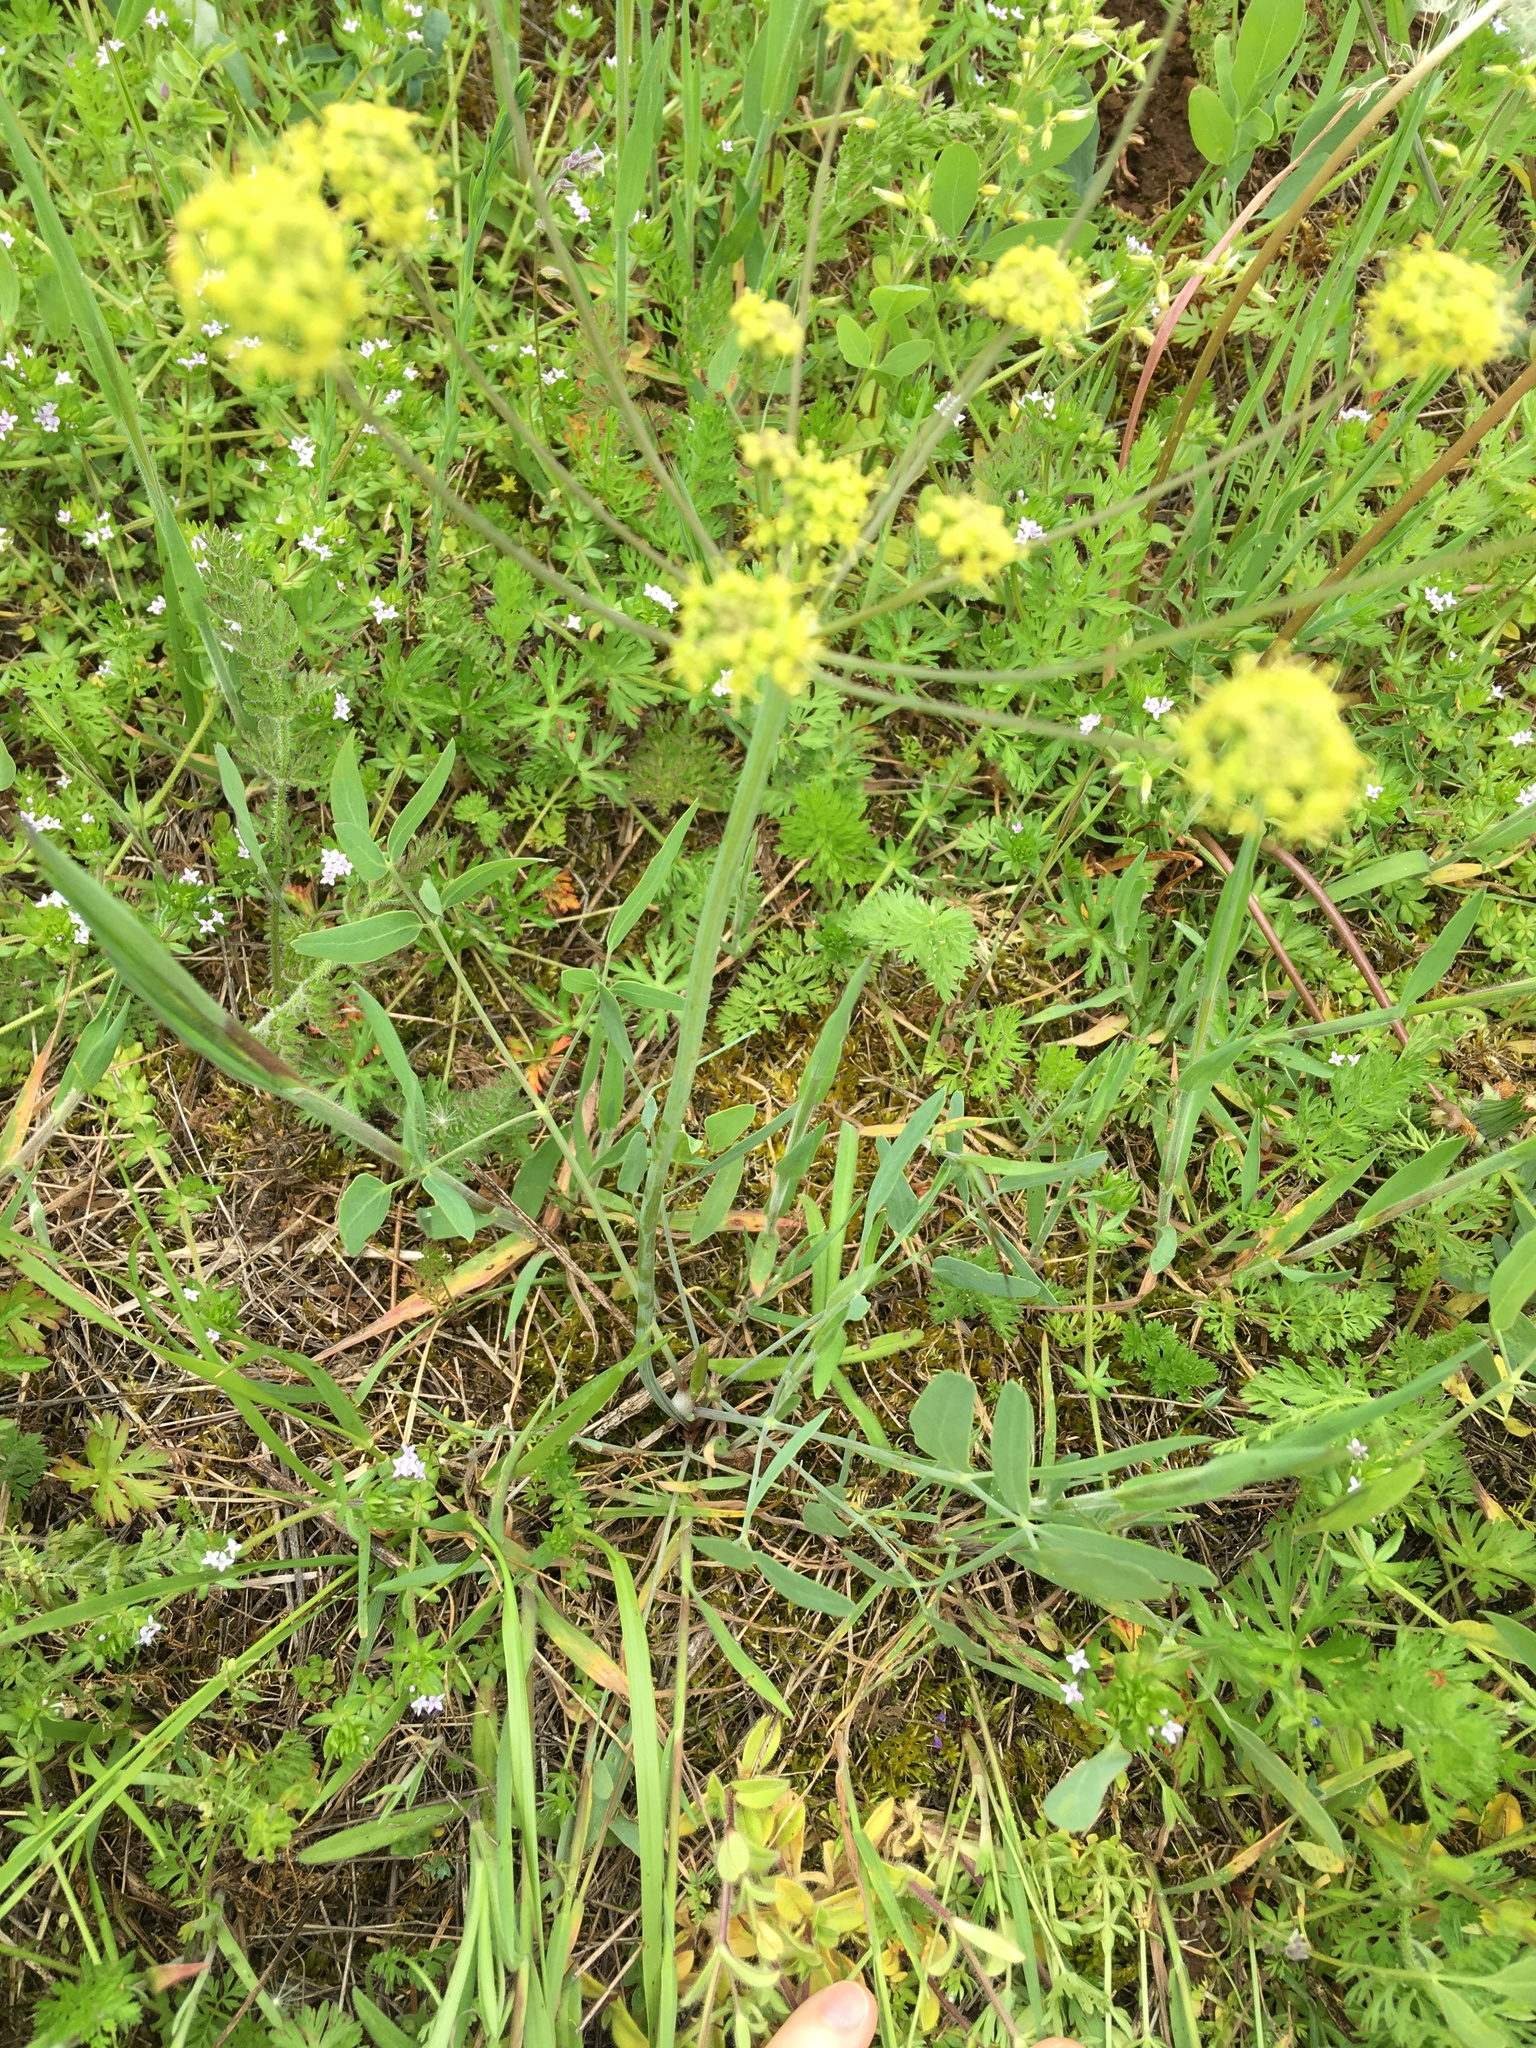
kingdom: Plantae
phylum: Tracheophyta
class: Magnoliopsida
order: Apiales
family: Apiaceae
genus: Lomatium
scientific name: Lomatium nudicaule
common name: Pestle lomatium
